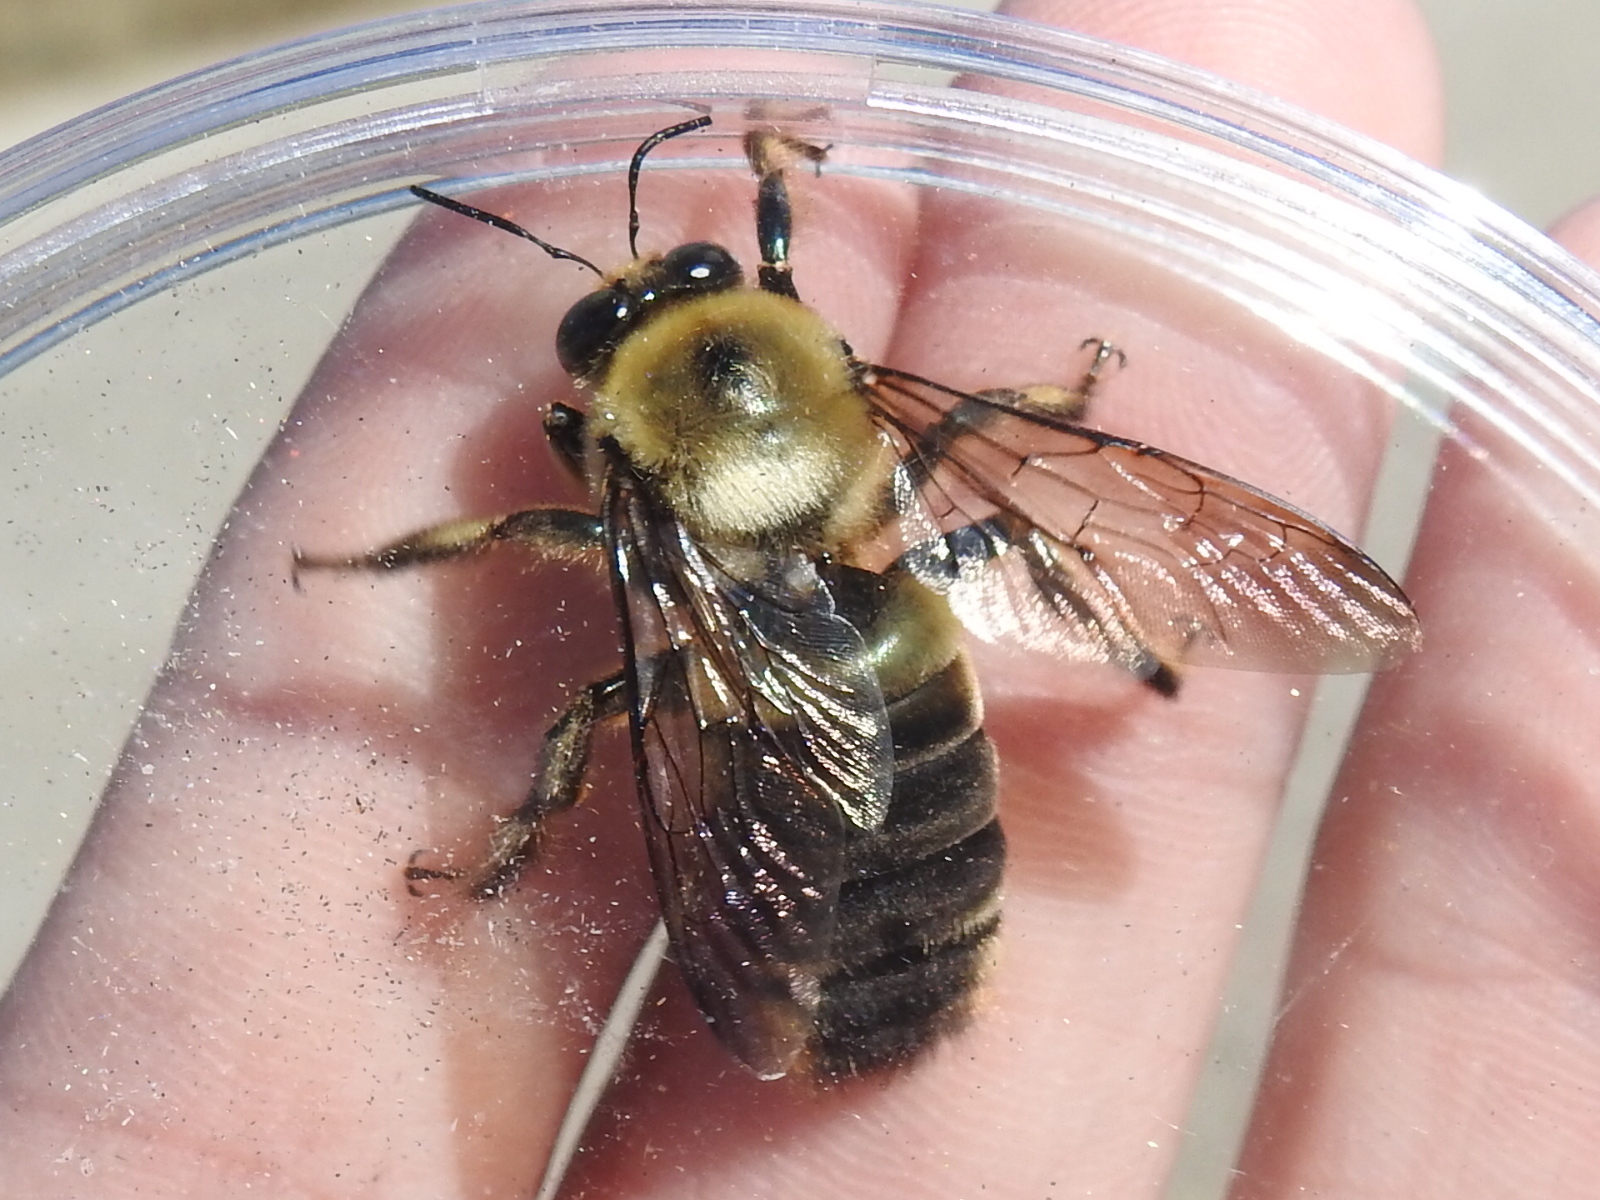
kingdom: Animalia
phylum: Arthropoda
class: Insecta
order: Hymenoptera
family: Apidae
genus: Xylocopa
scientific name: Xylocopa virginica
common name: Carpenter bee
